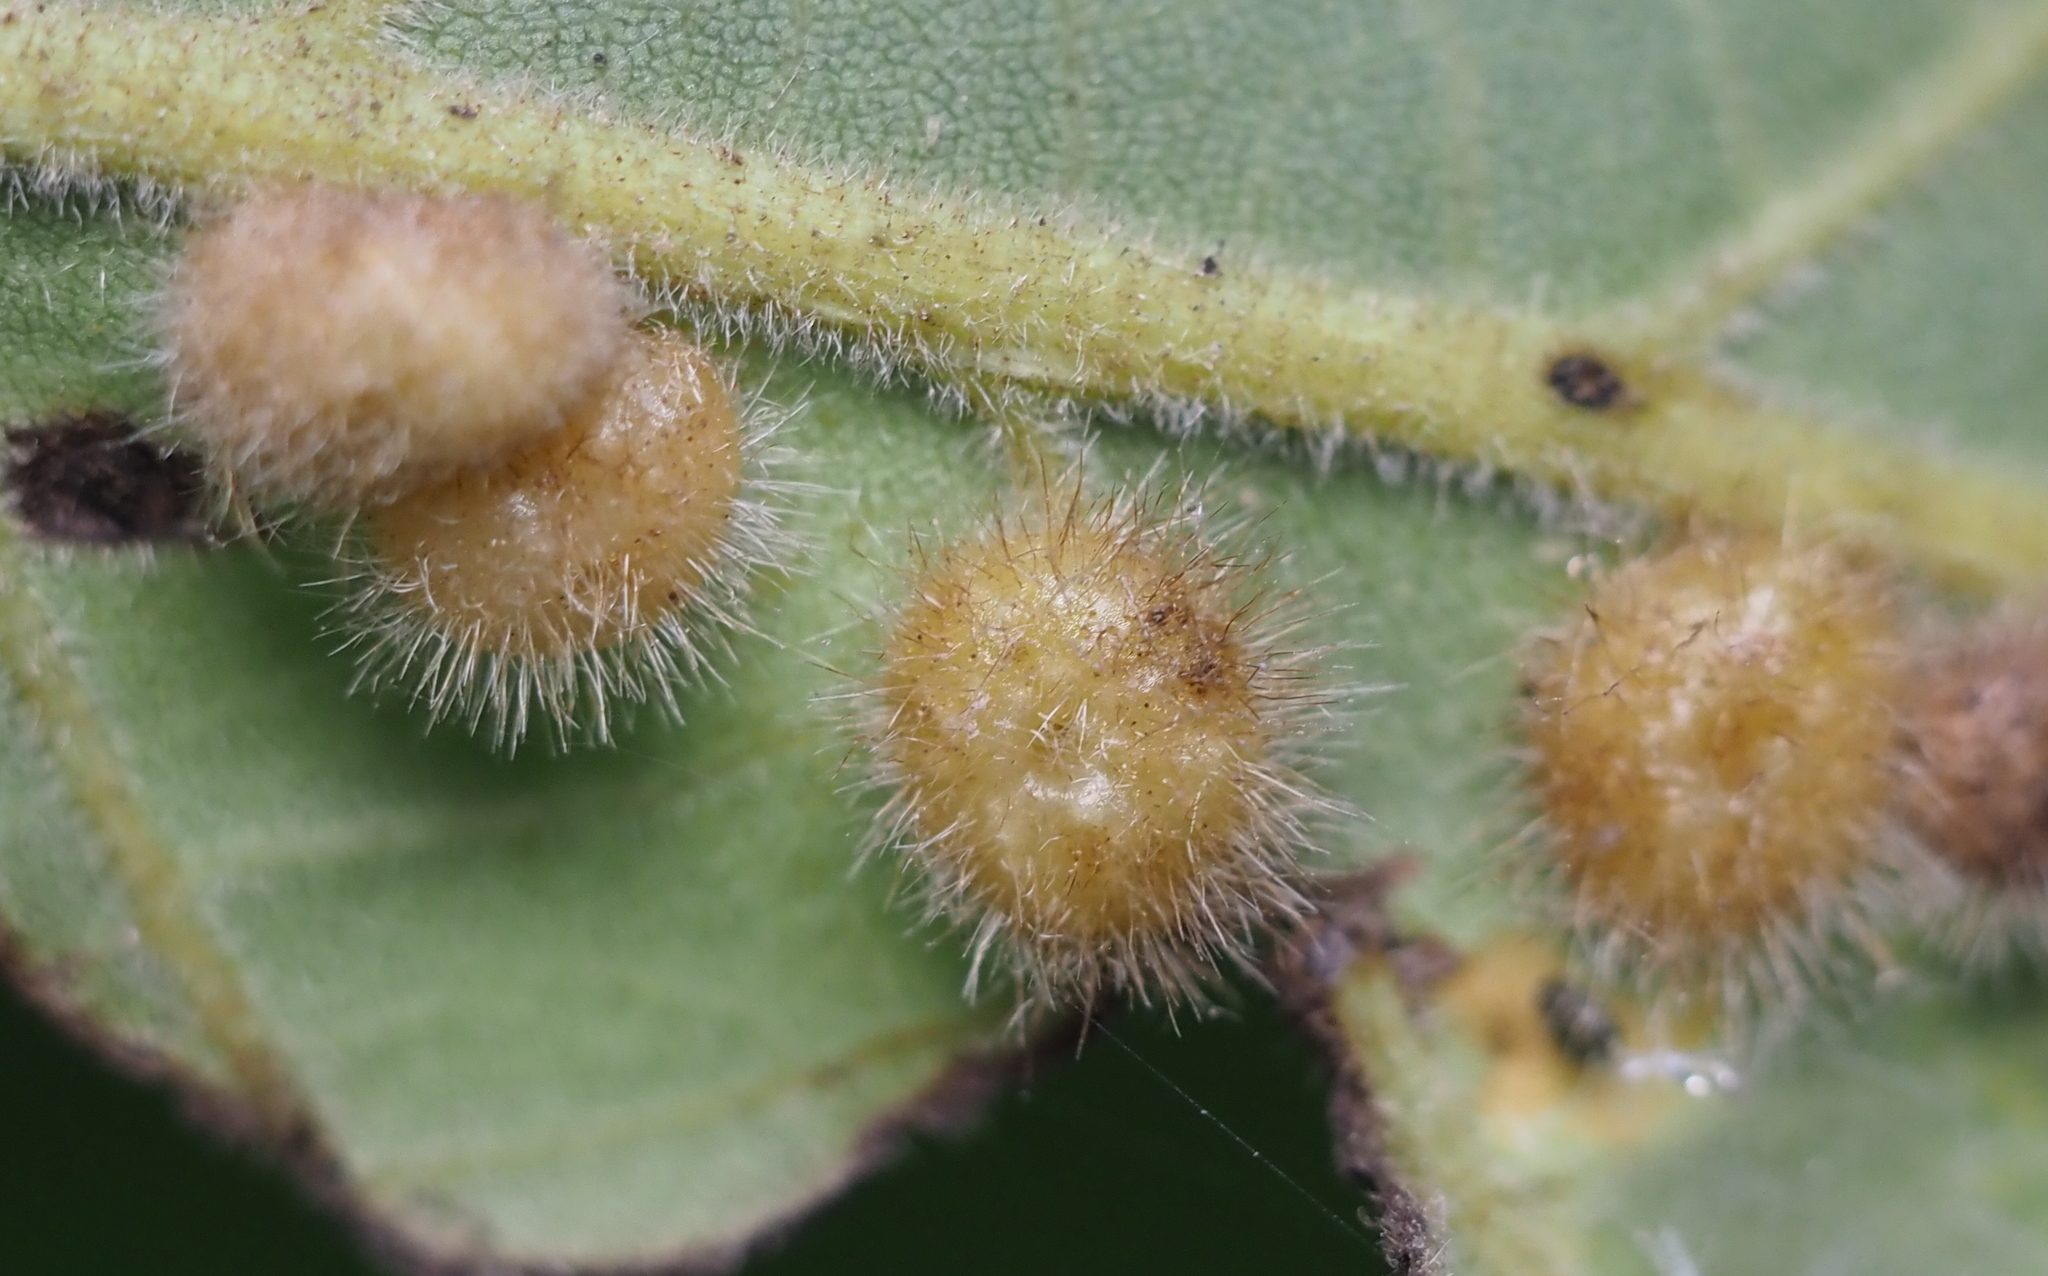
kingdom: Animalia
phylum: Arthropoda
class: Insecta
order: Diptera
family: Cecidomyiidae
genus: Caryomyia
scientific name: Caryomyia thompsoni
